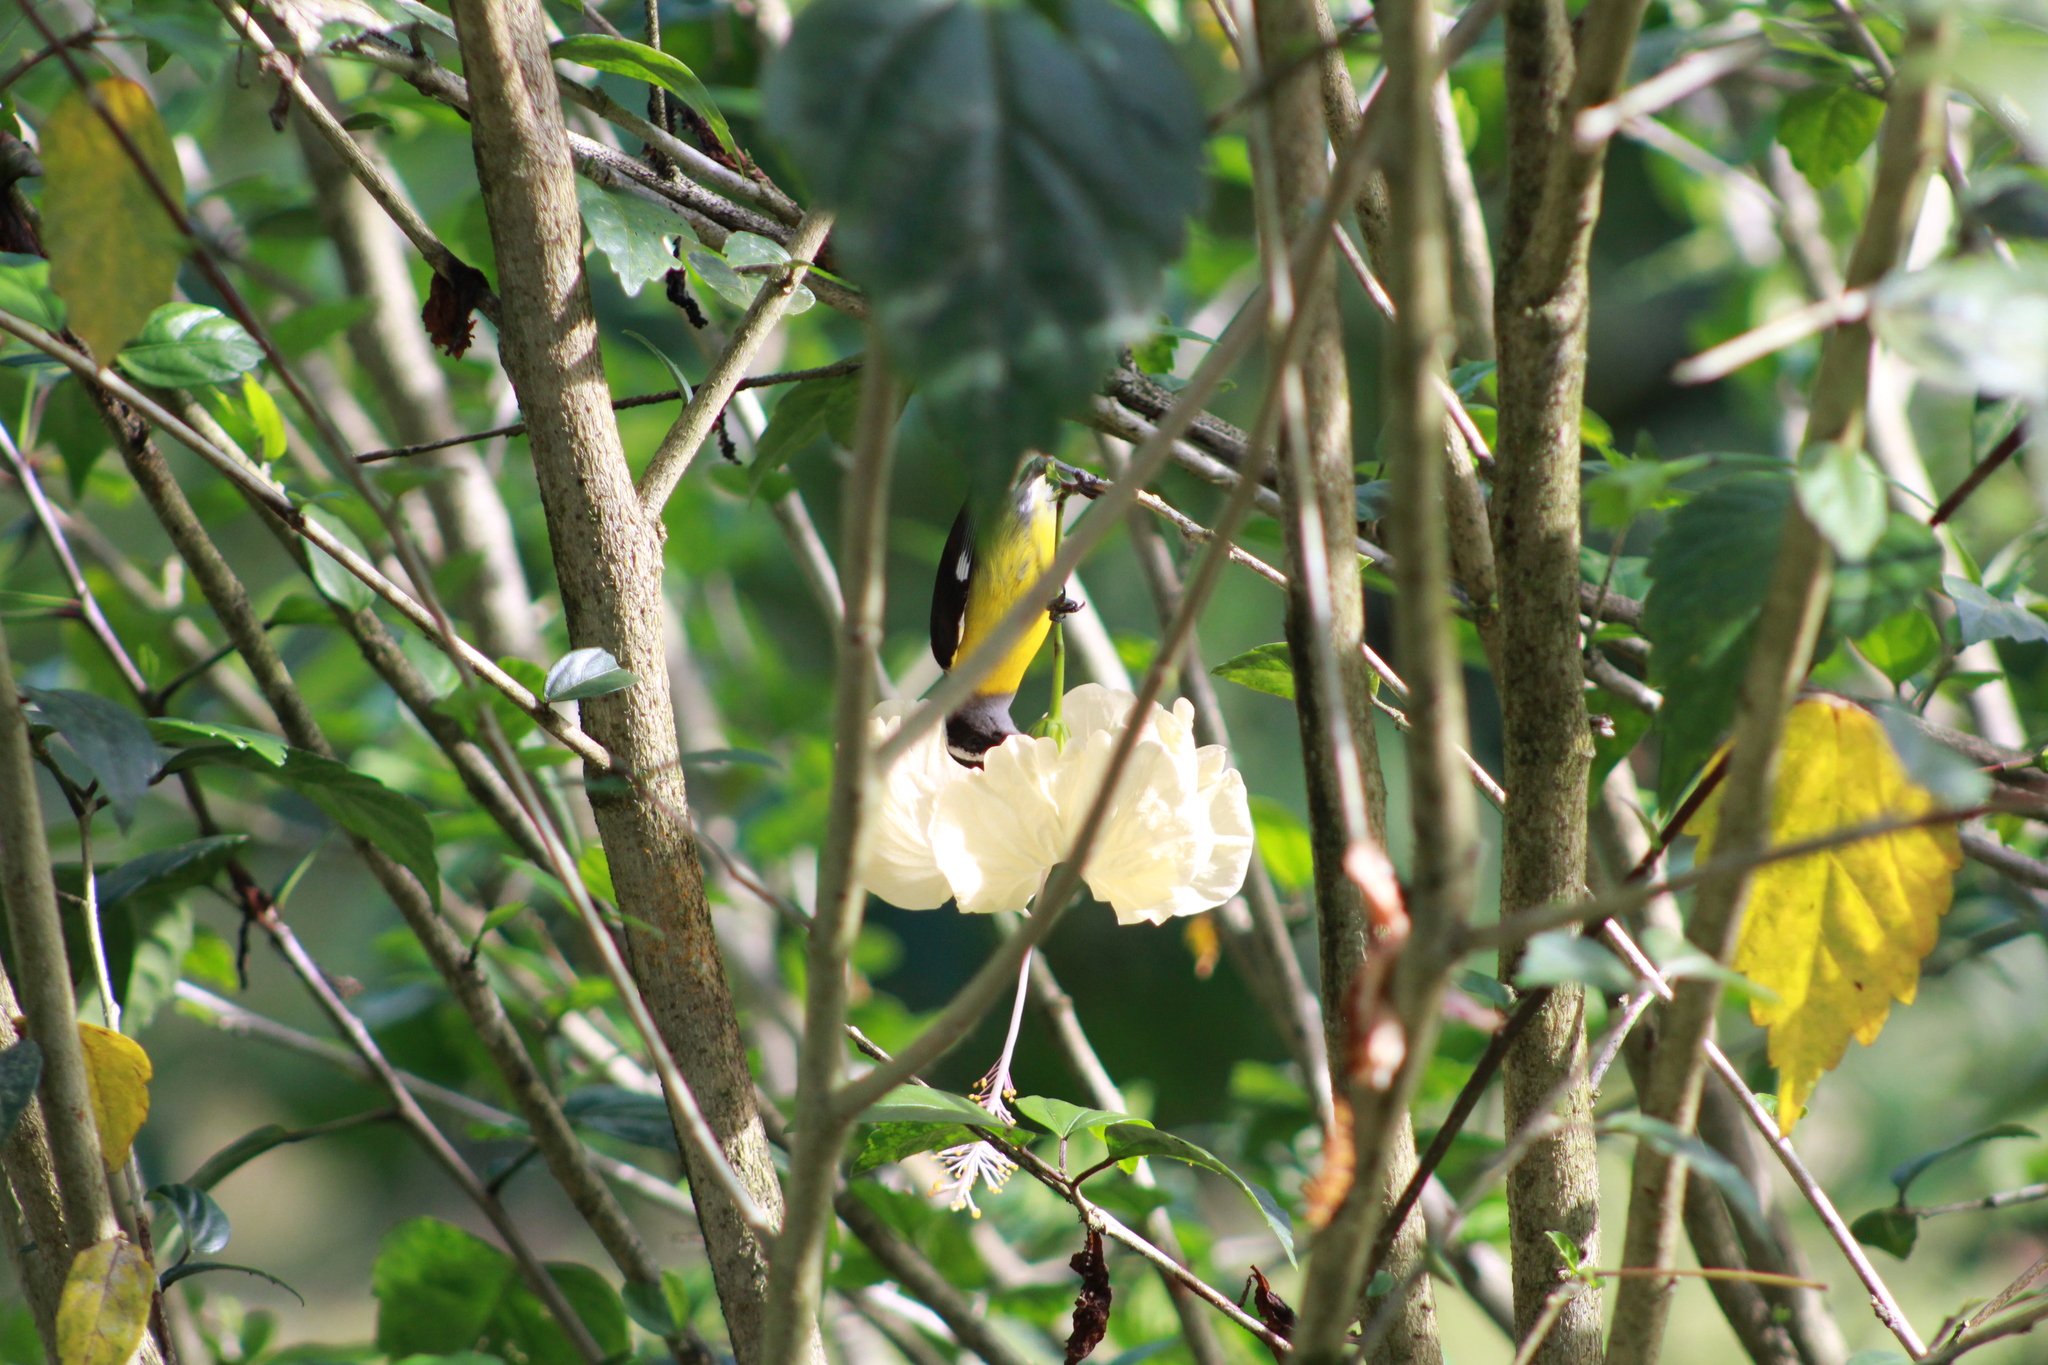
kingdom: Animalia
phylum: Chordata
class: Aves
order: Passeriformes
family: Thraupidae
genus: Coereba
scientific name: Coereba flaveola
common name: Bananaquit
